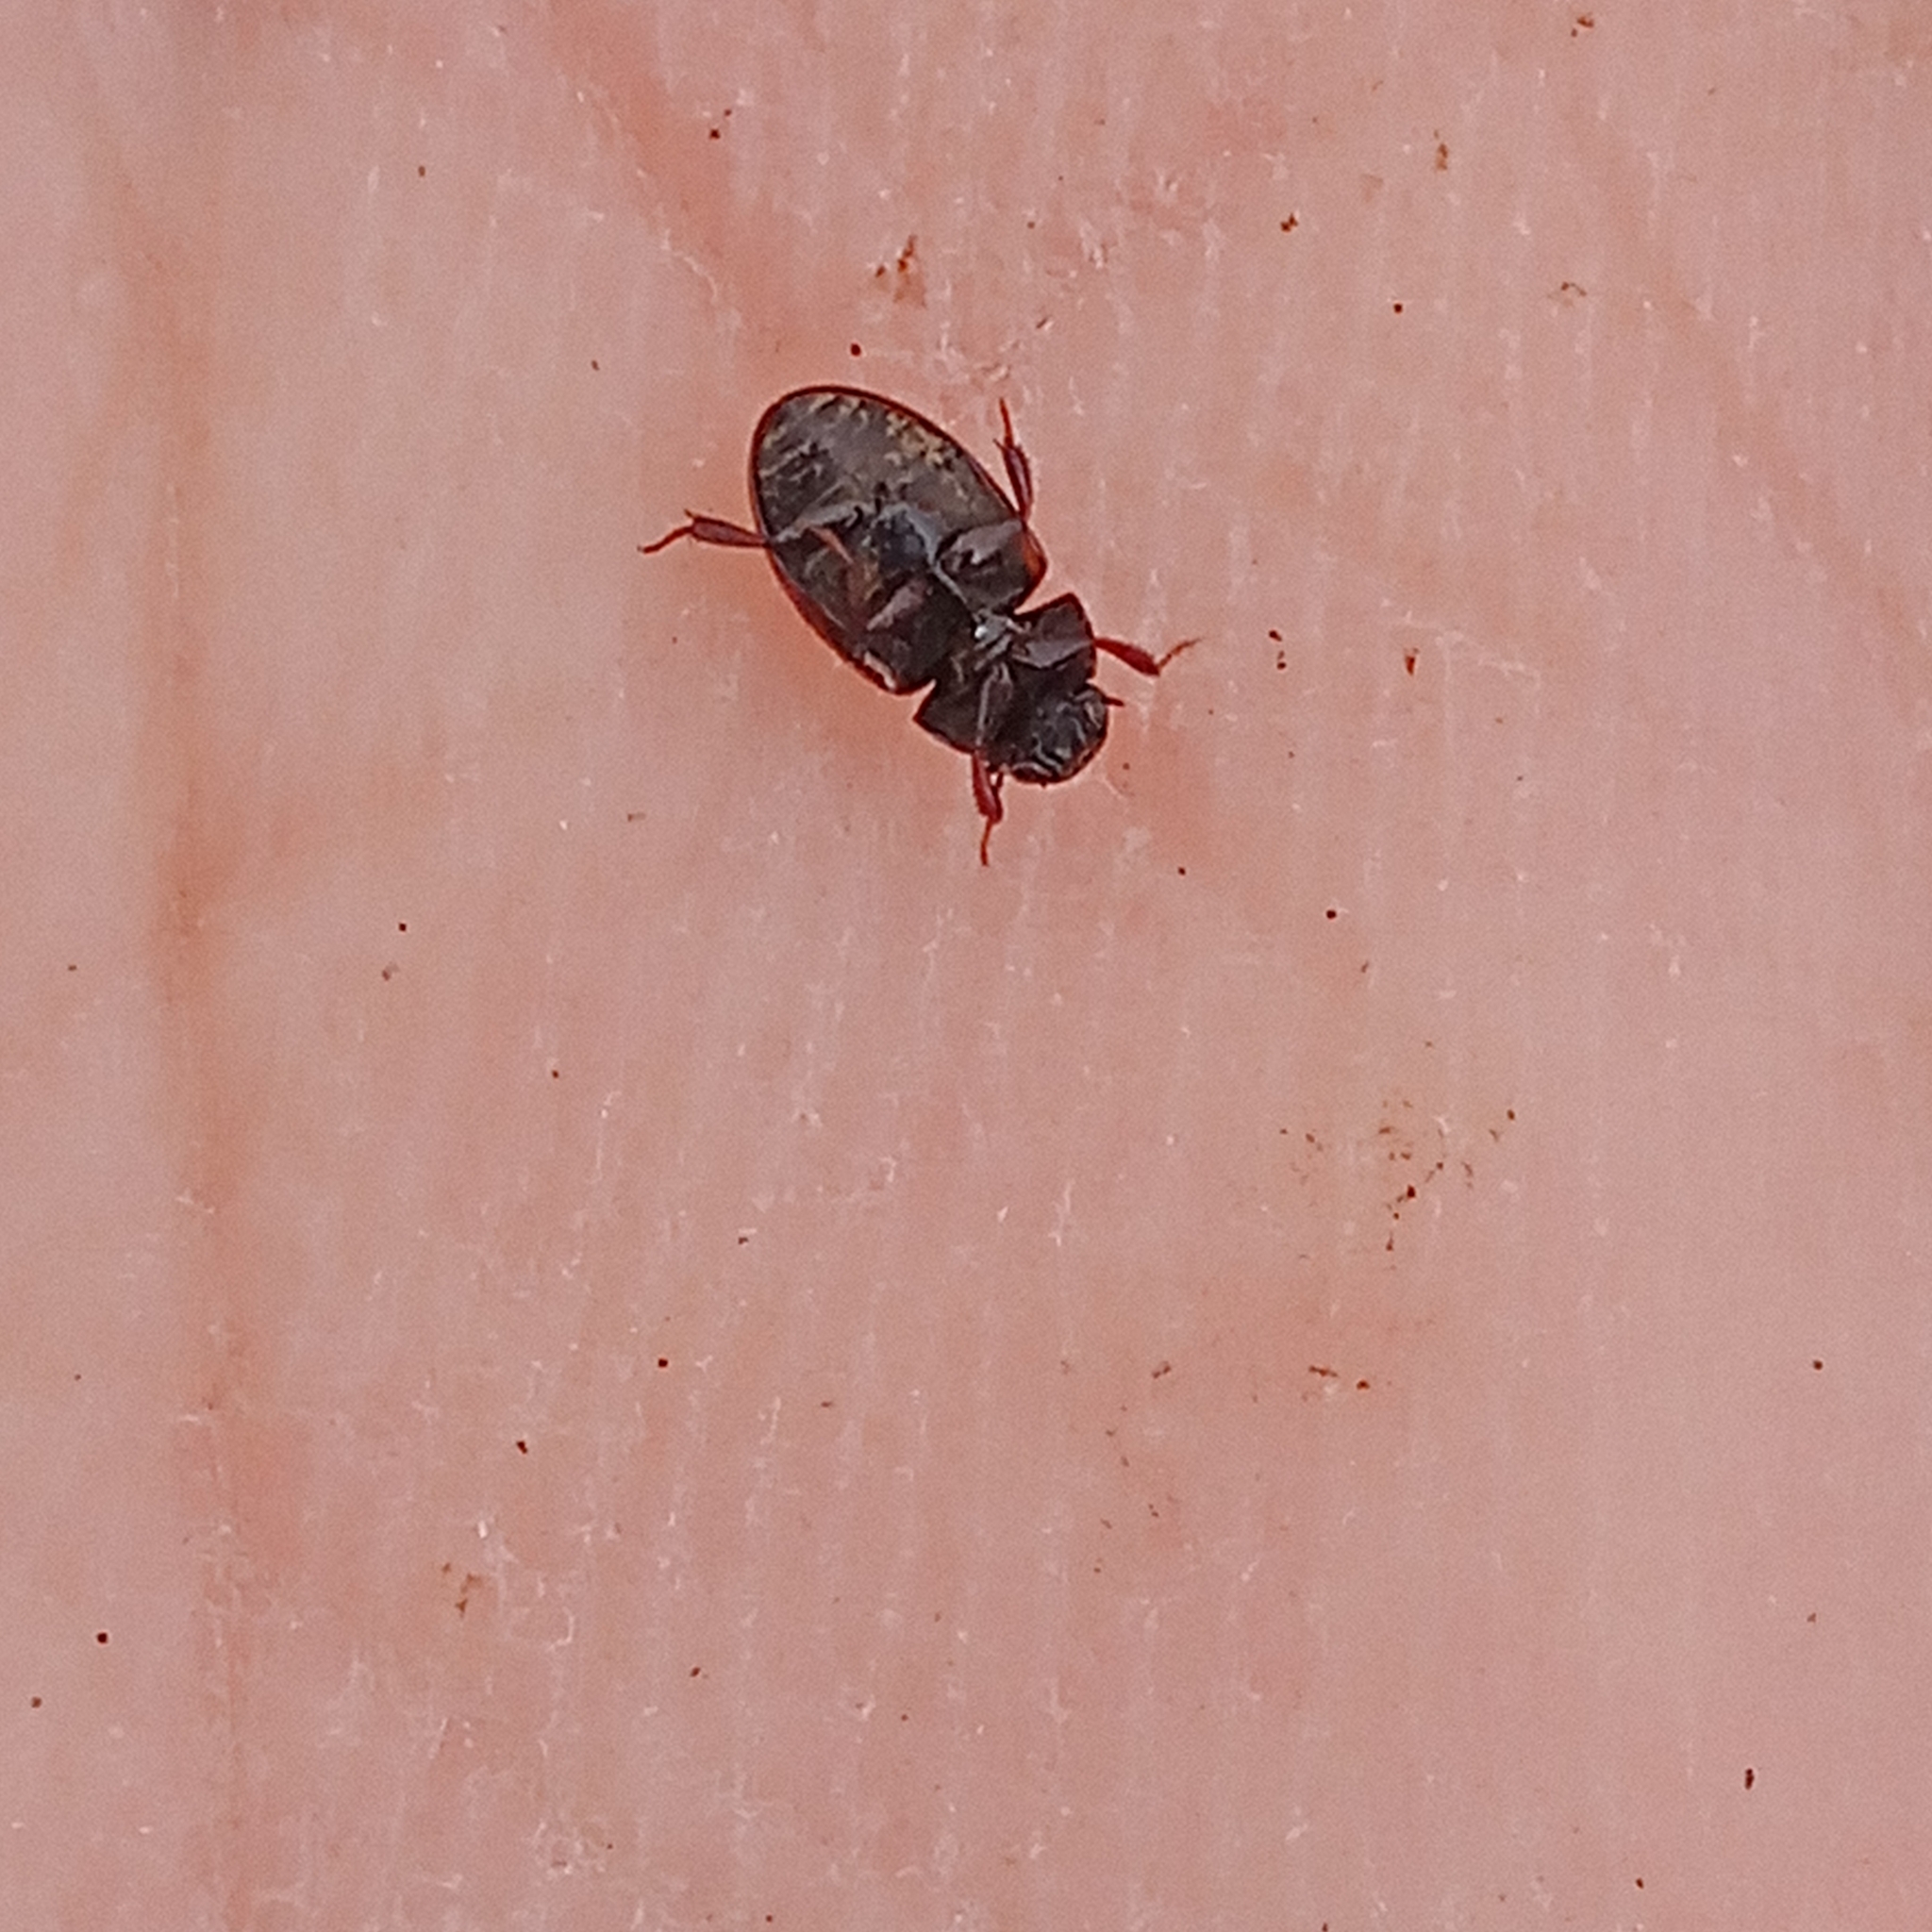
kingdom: Animalia
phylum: Arthropoda
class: Insecta
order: Coleoptera
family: Hydrophilidae
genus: Cercyon
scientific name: Cercyon unipunctatus
